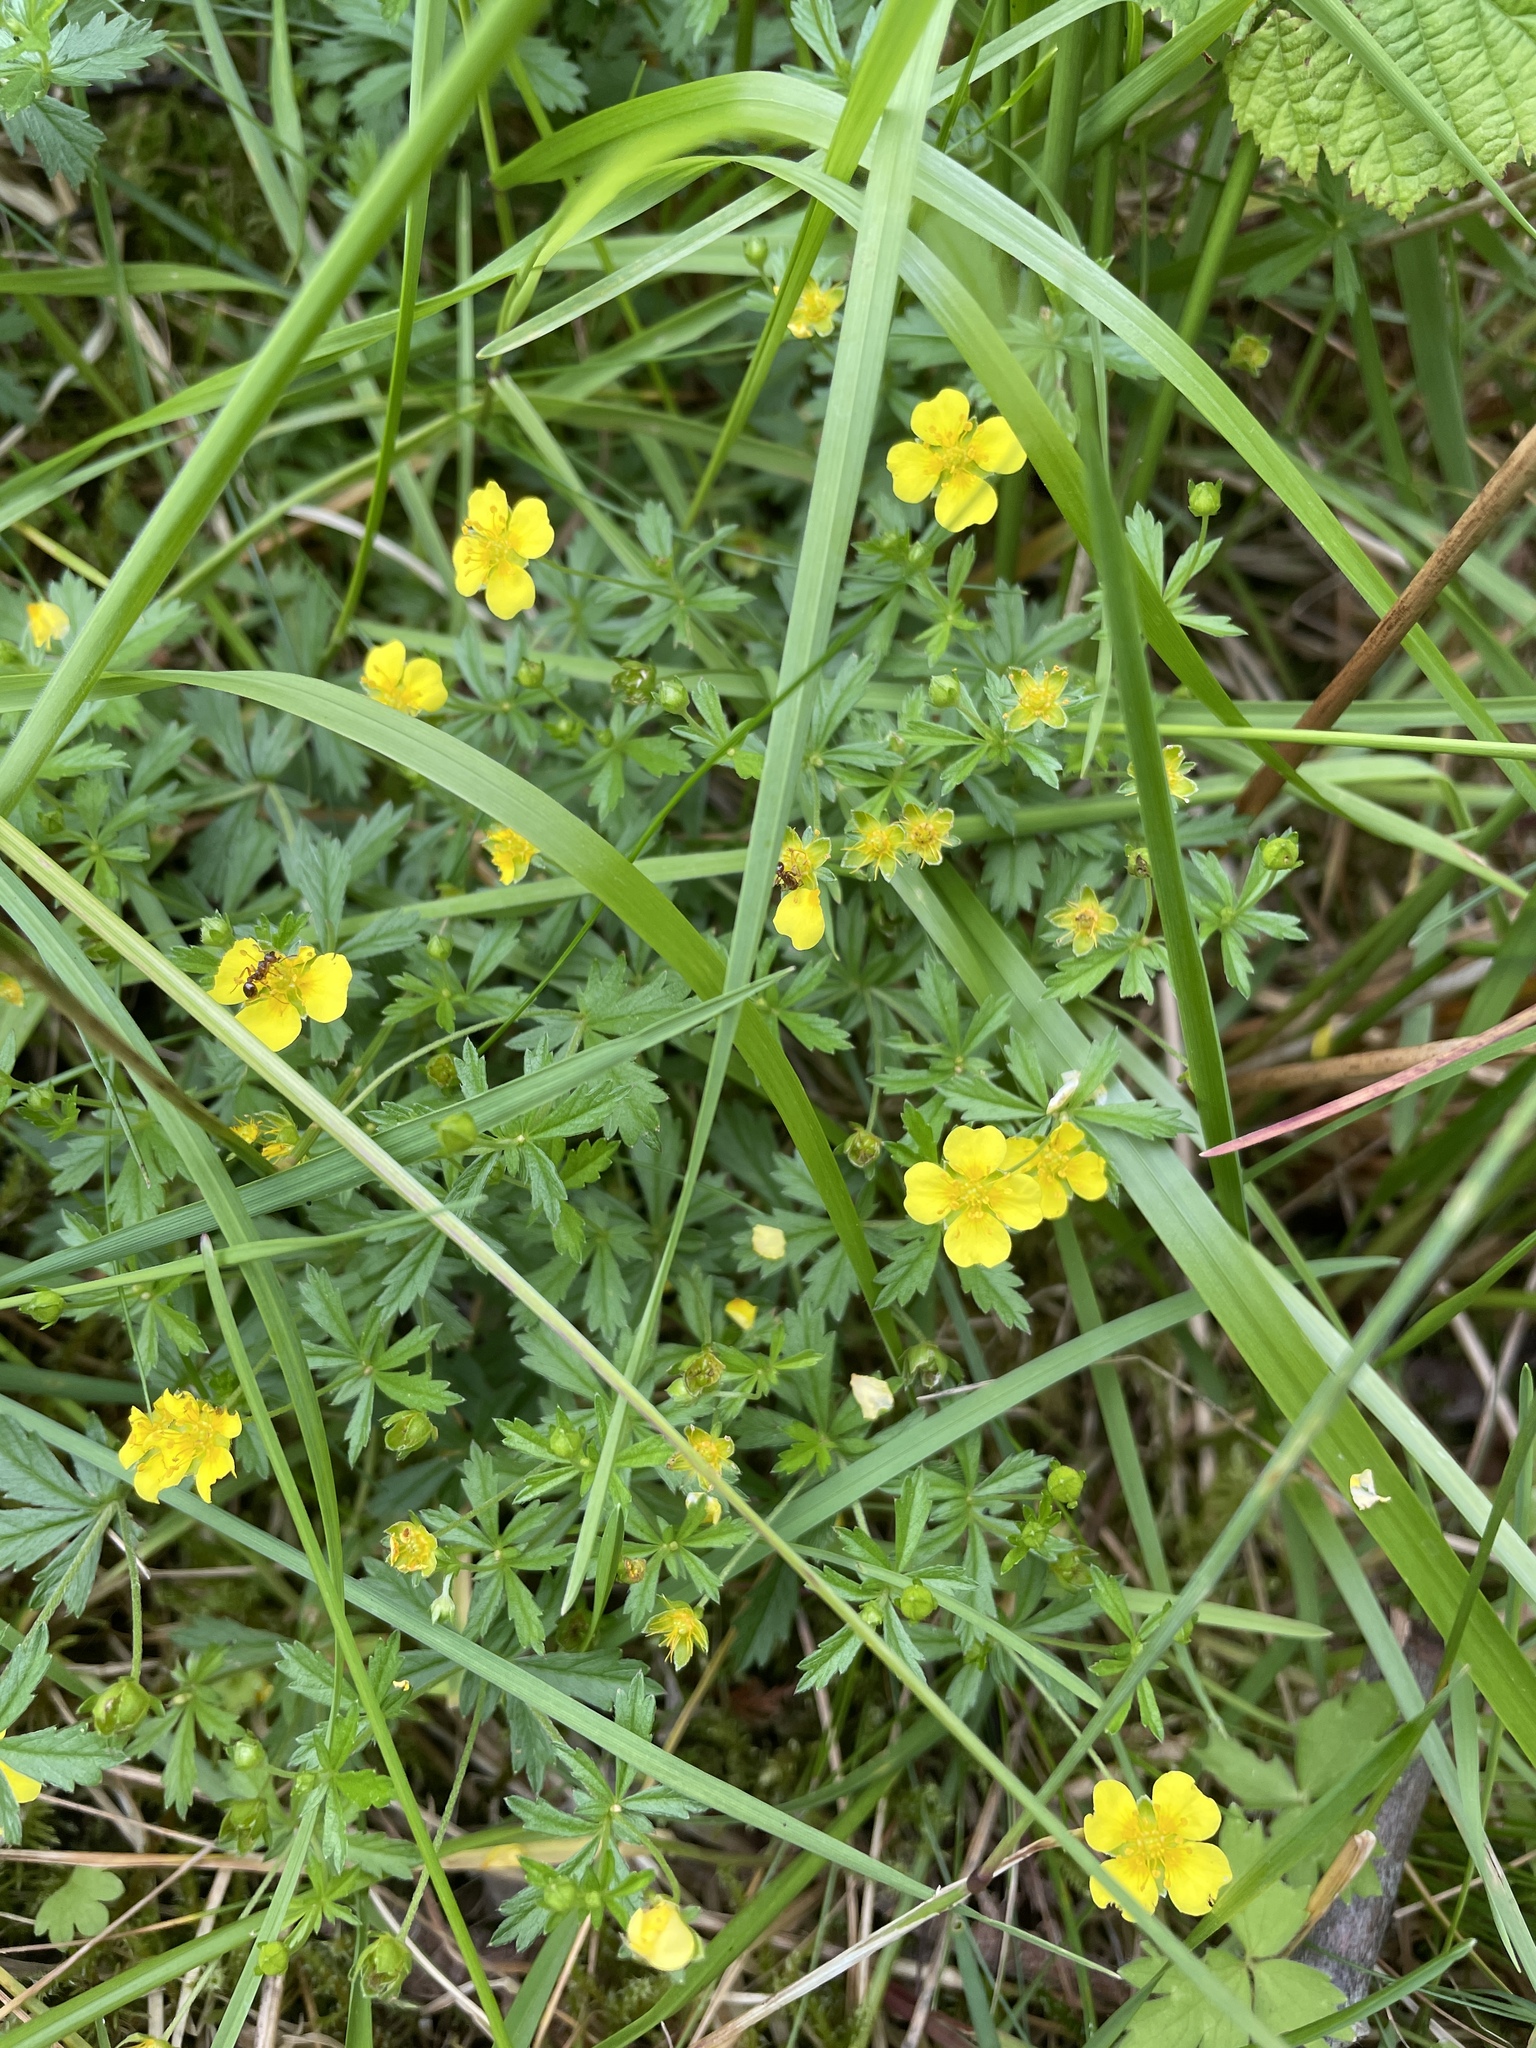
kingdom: Plantae
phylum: Tracheophyta
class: Magnoliopsida
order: Rosales
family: Rosaceae
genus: Potentilla
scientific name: Potentilla erecta
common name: Tormentil
